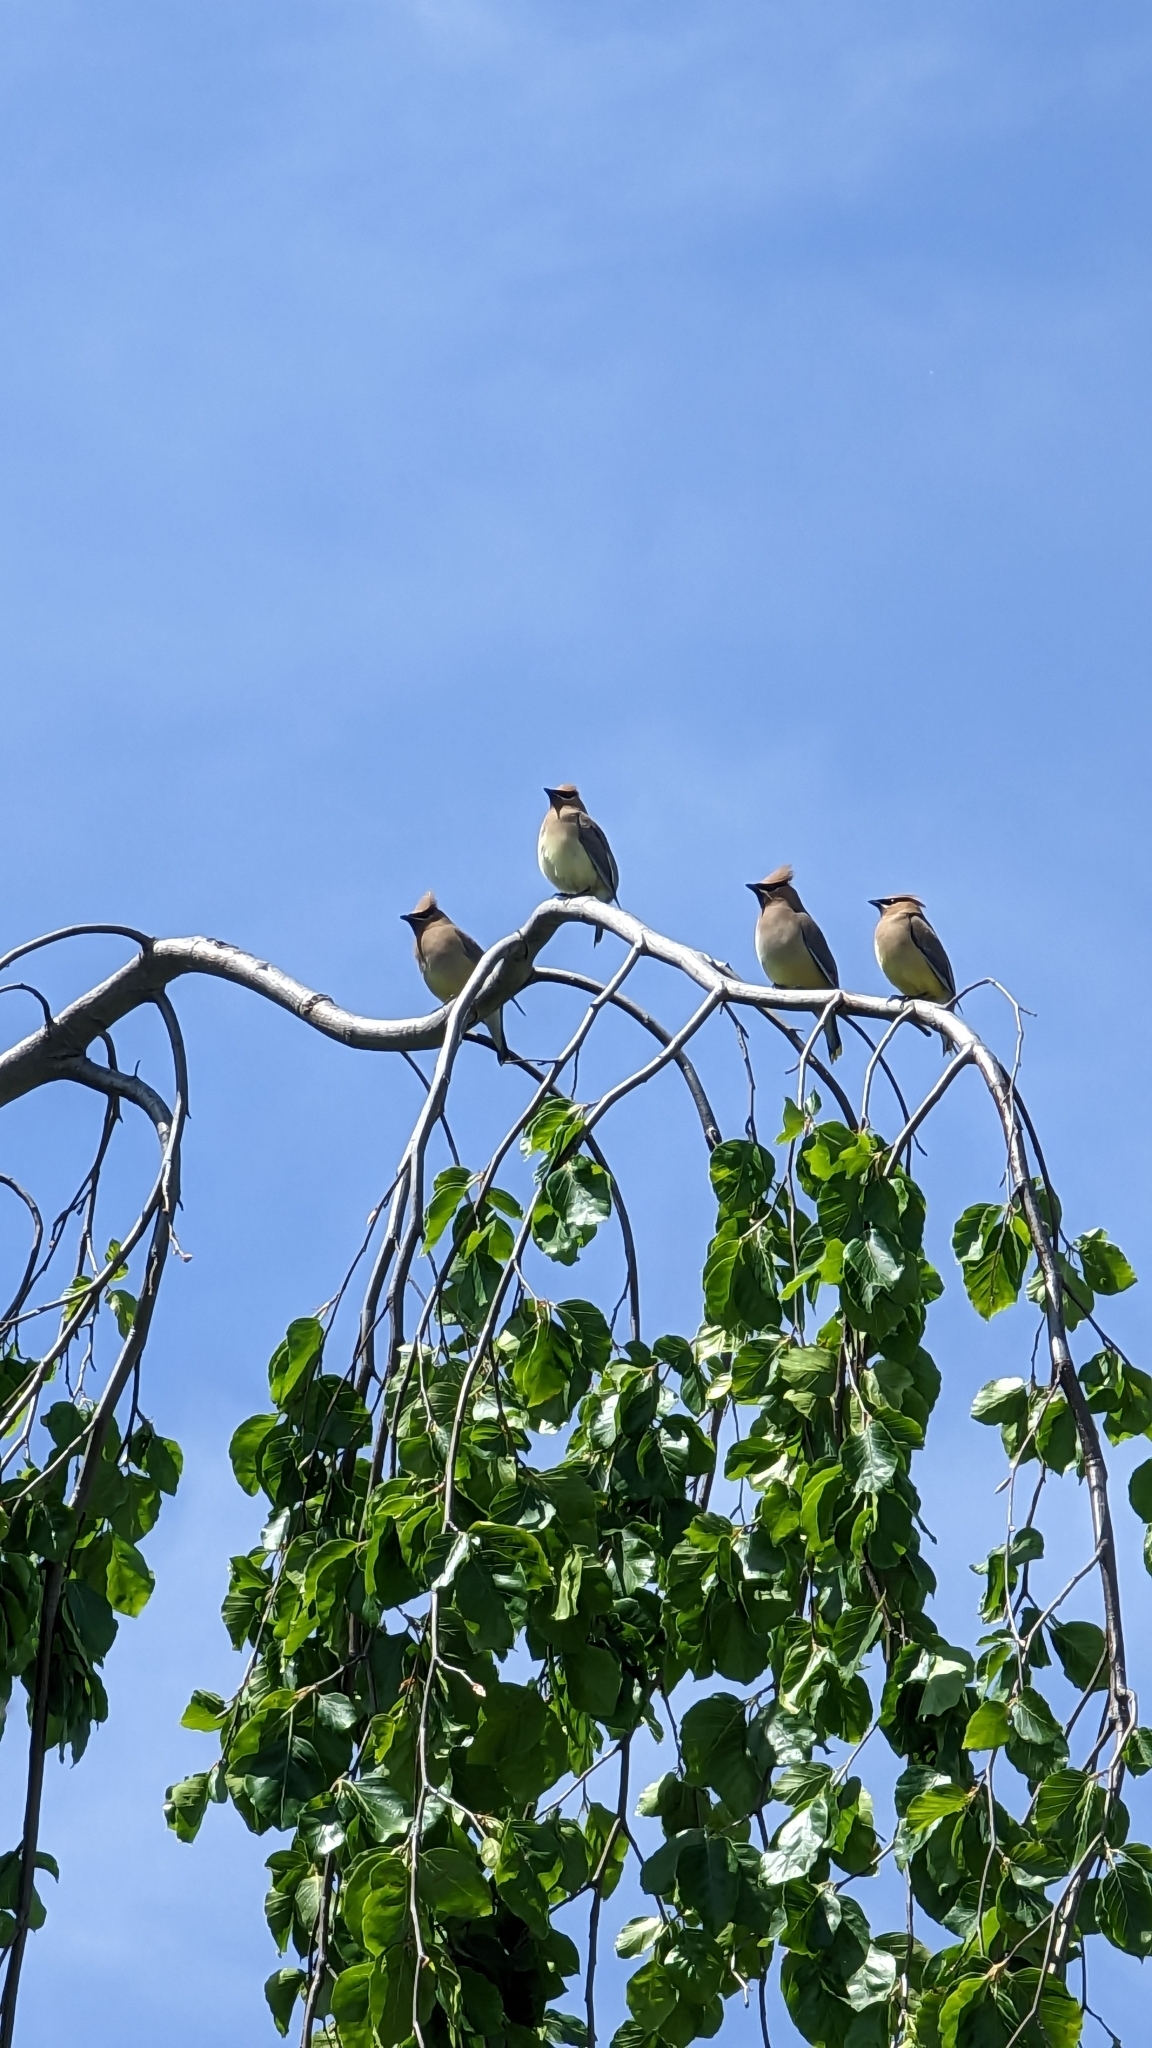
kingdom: Animalia
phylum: Chordata
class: Aves
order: Passeriformes
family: Bombycillidae
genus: Bombycilla
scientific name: Bombycilla cedrorum
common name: Cedar waxwing
